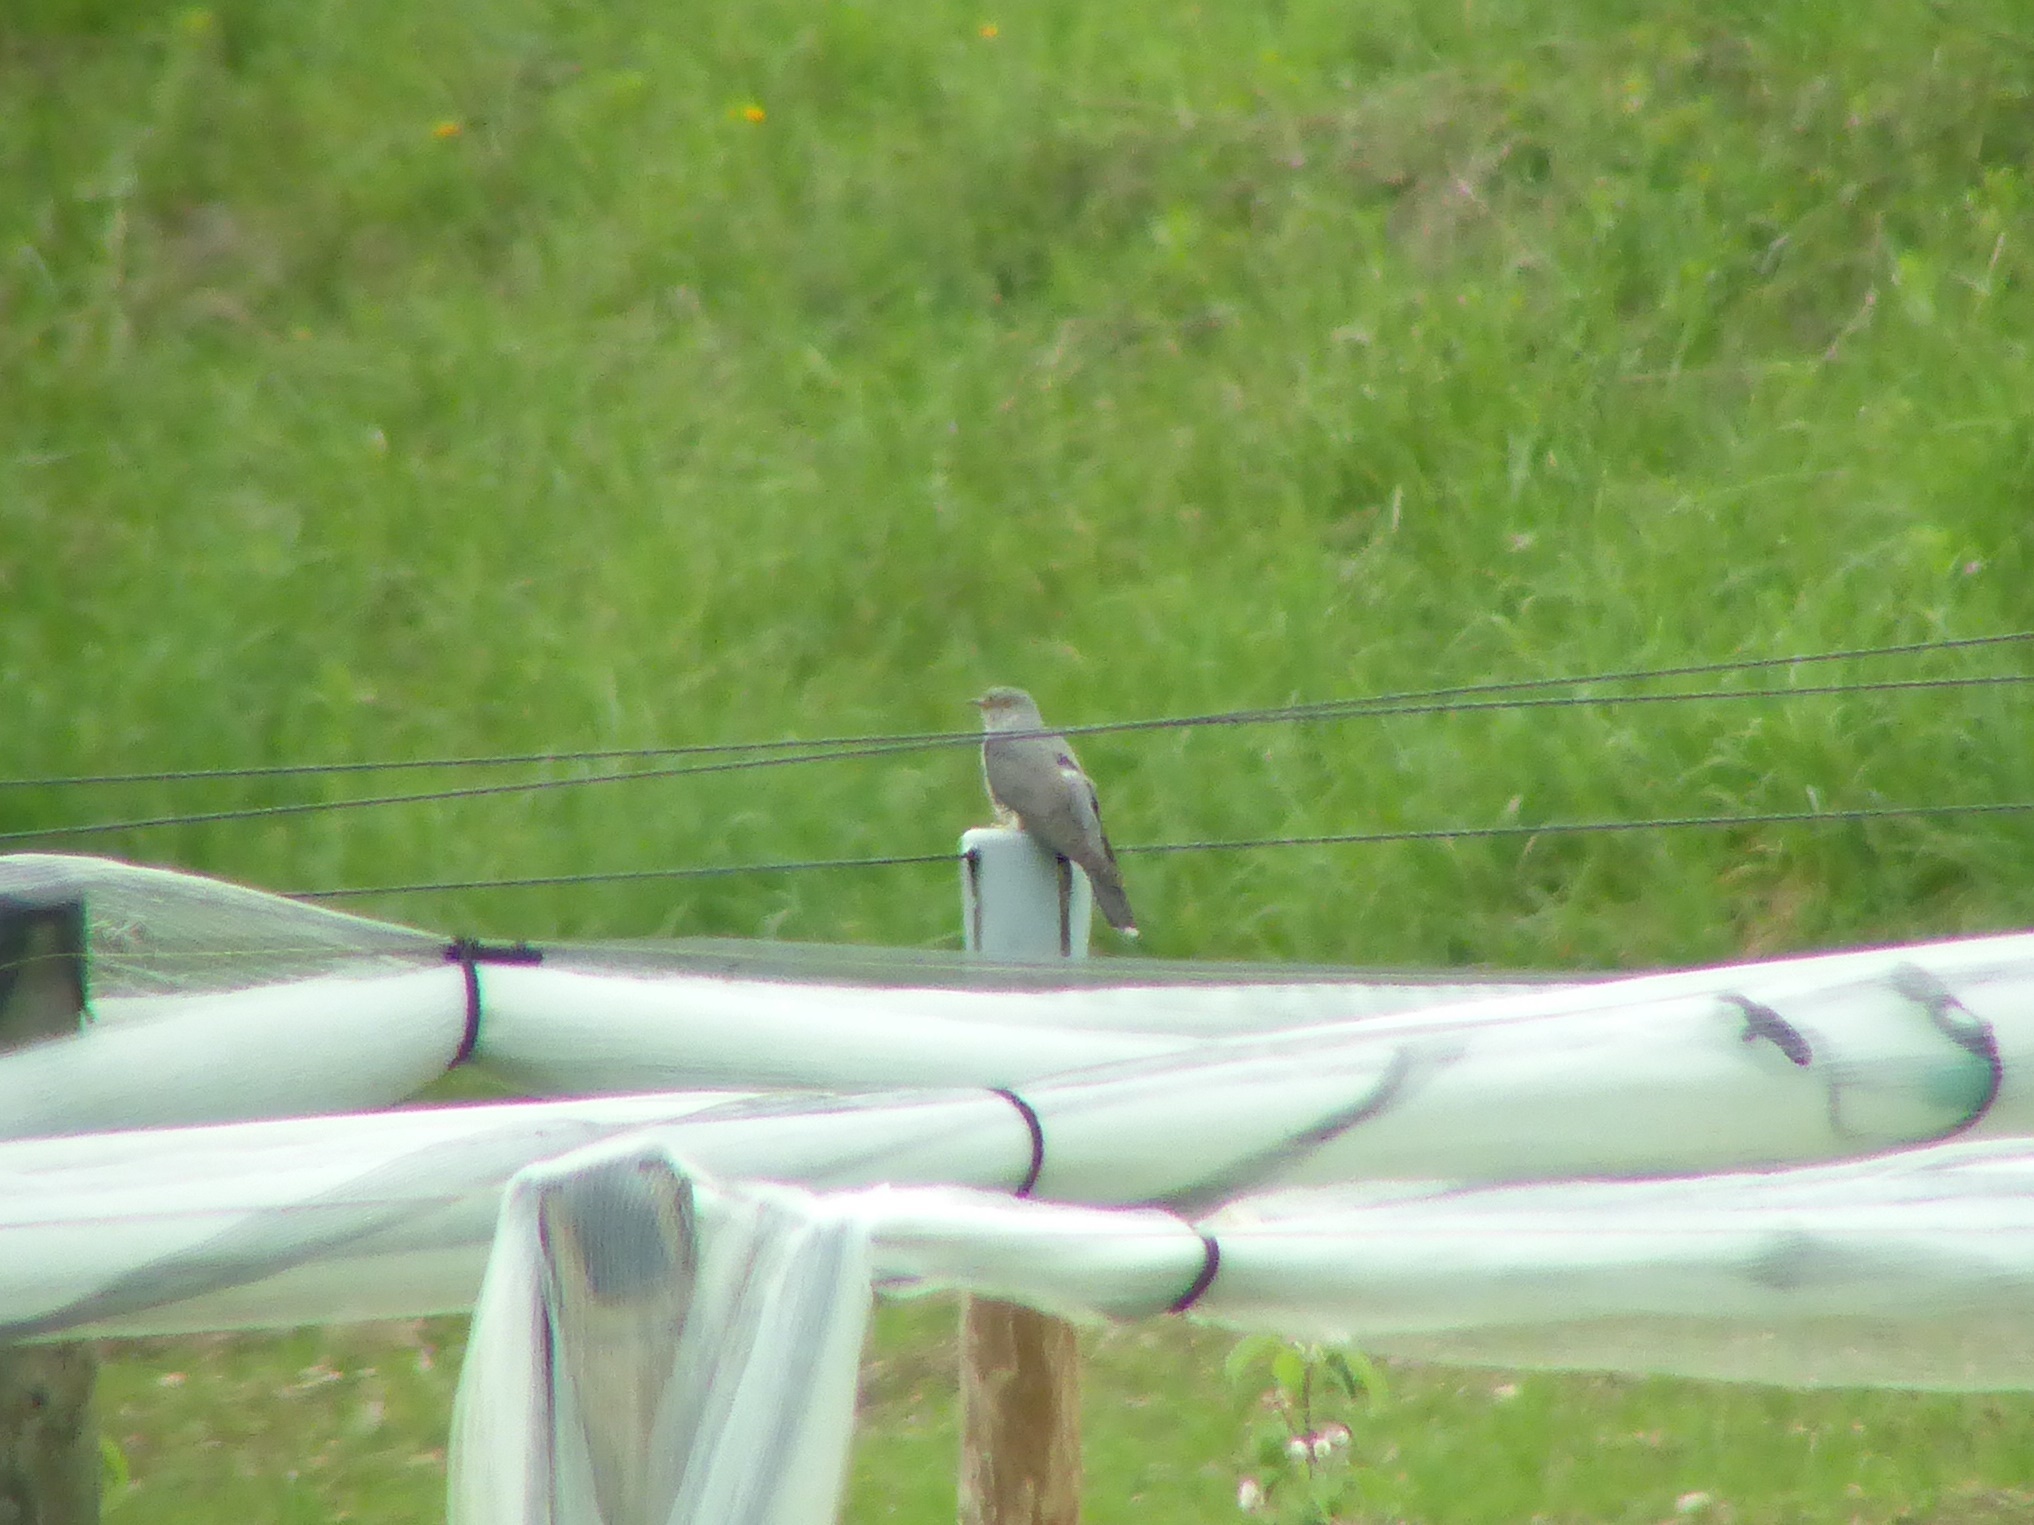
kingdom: Animalia
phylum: Chordata
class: Aves
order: Cuculiformes
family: Cuculidae
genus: Cuculus
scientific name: Cuculus canorus
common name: Common cuckoo
